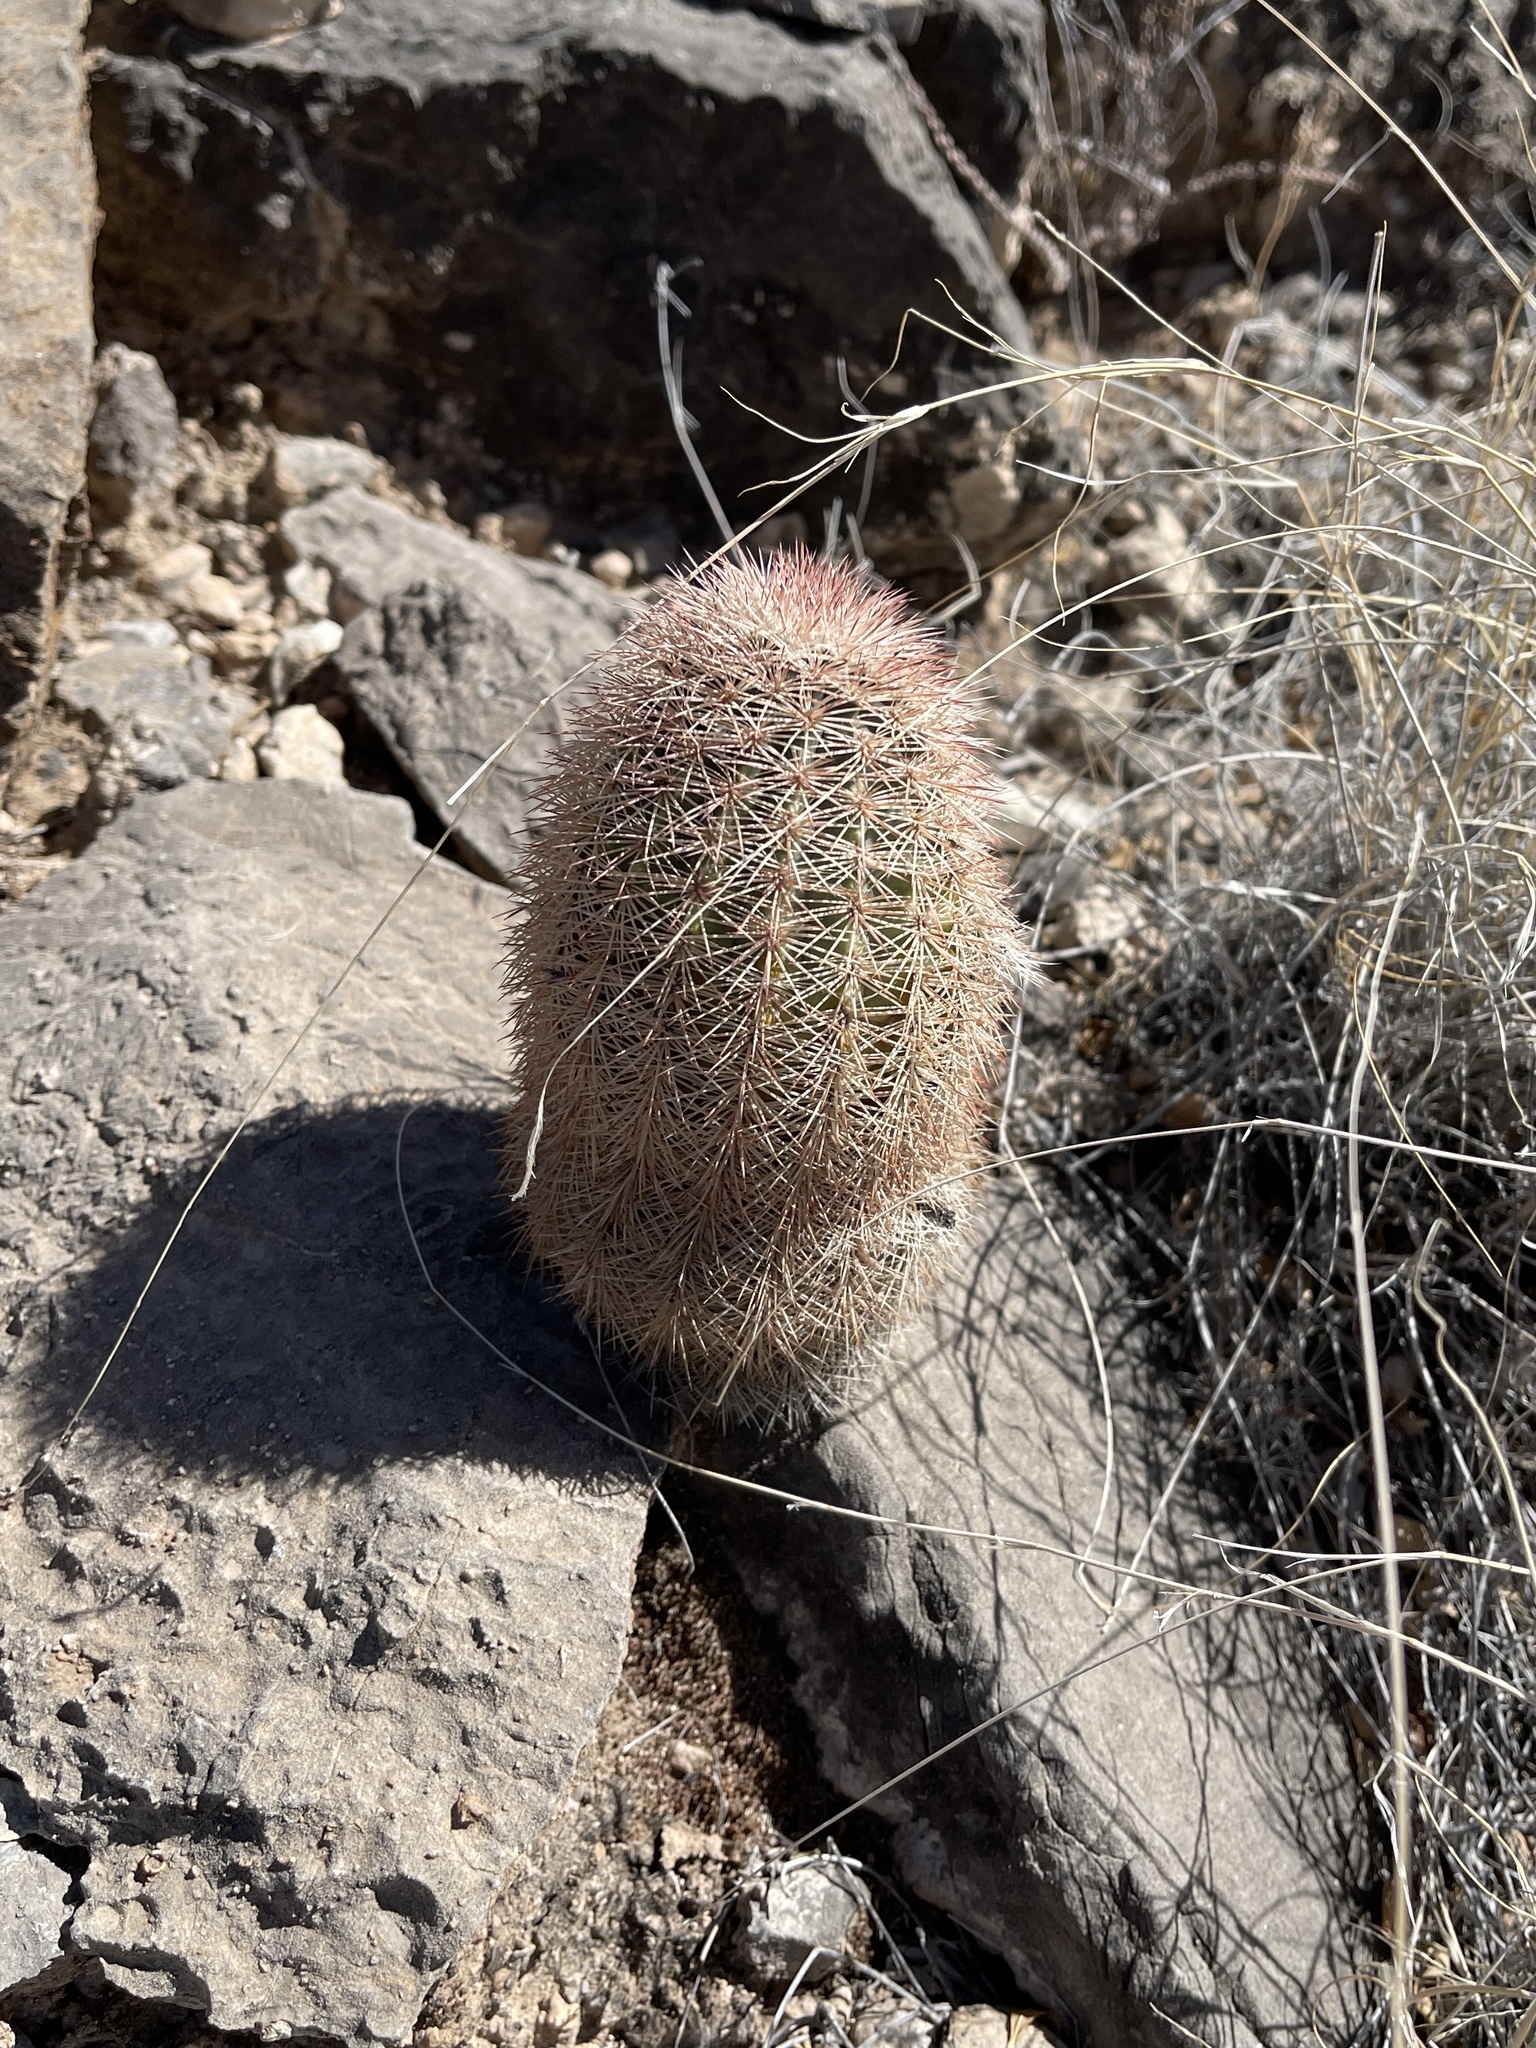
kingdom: Plantae
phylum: Tracheophyta
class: Magnoliopsida
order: Caryophyllales
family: Cactaceae
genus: Echinocereus
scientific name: Echinocereus dasyacanthus
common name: Spiny hedgehog cactus
